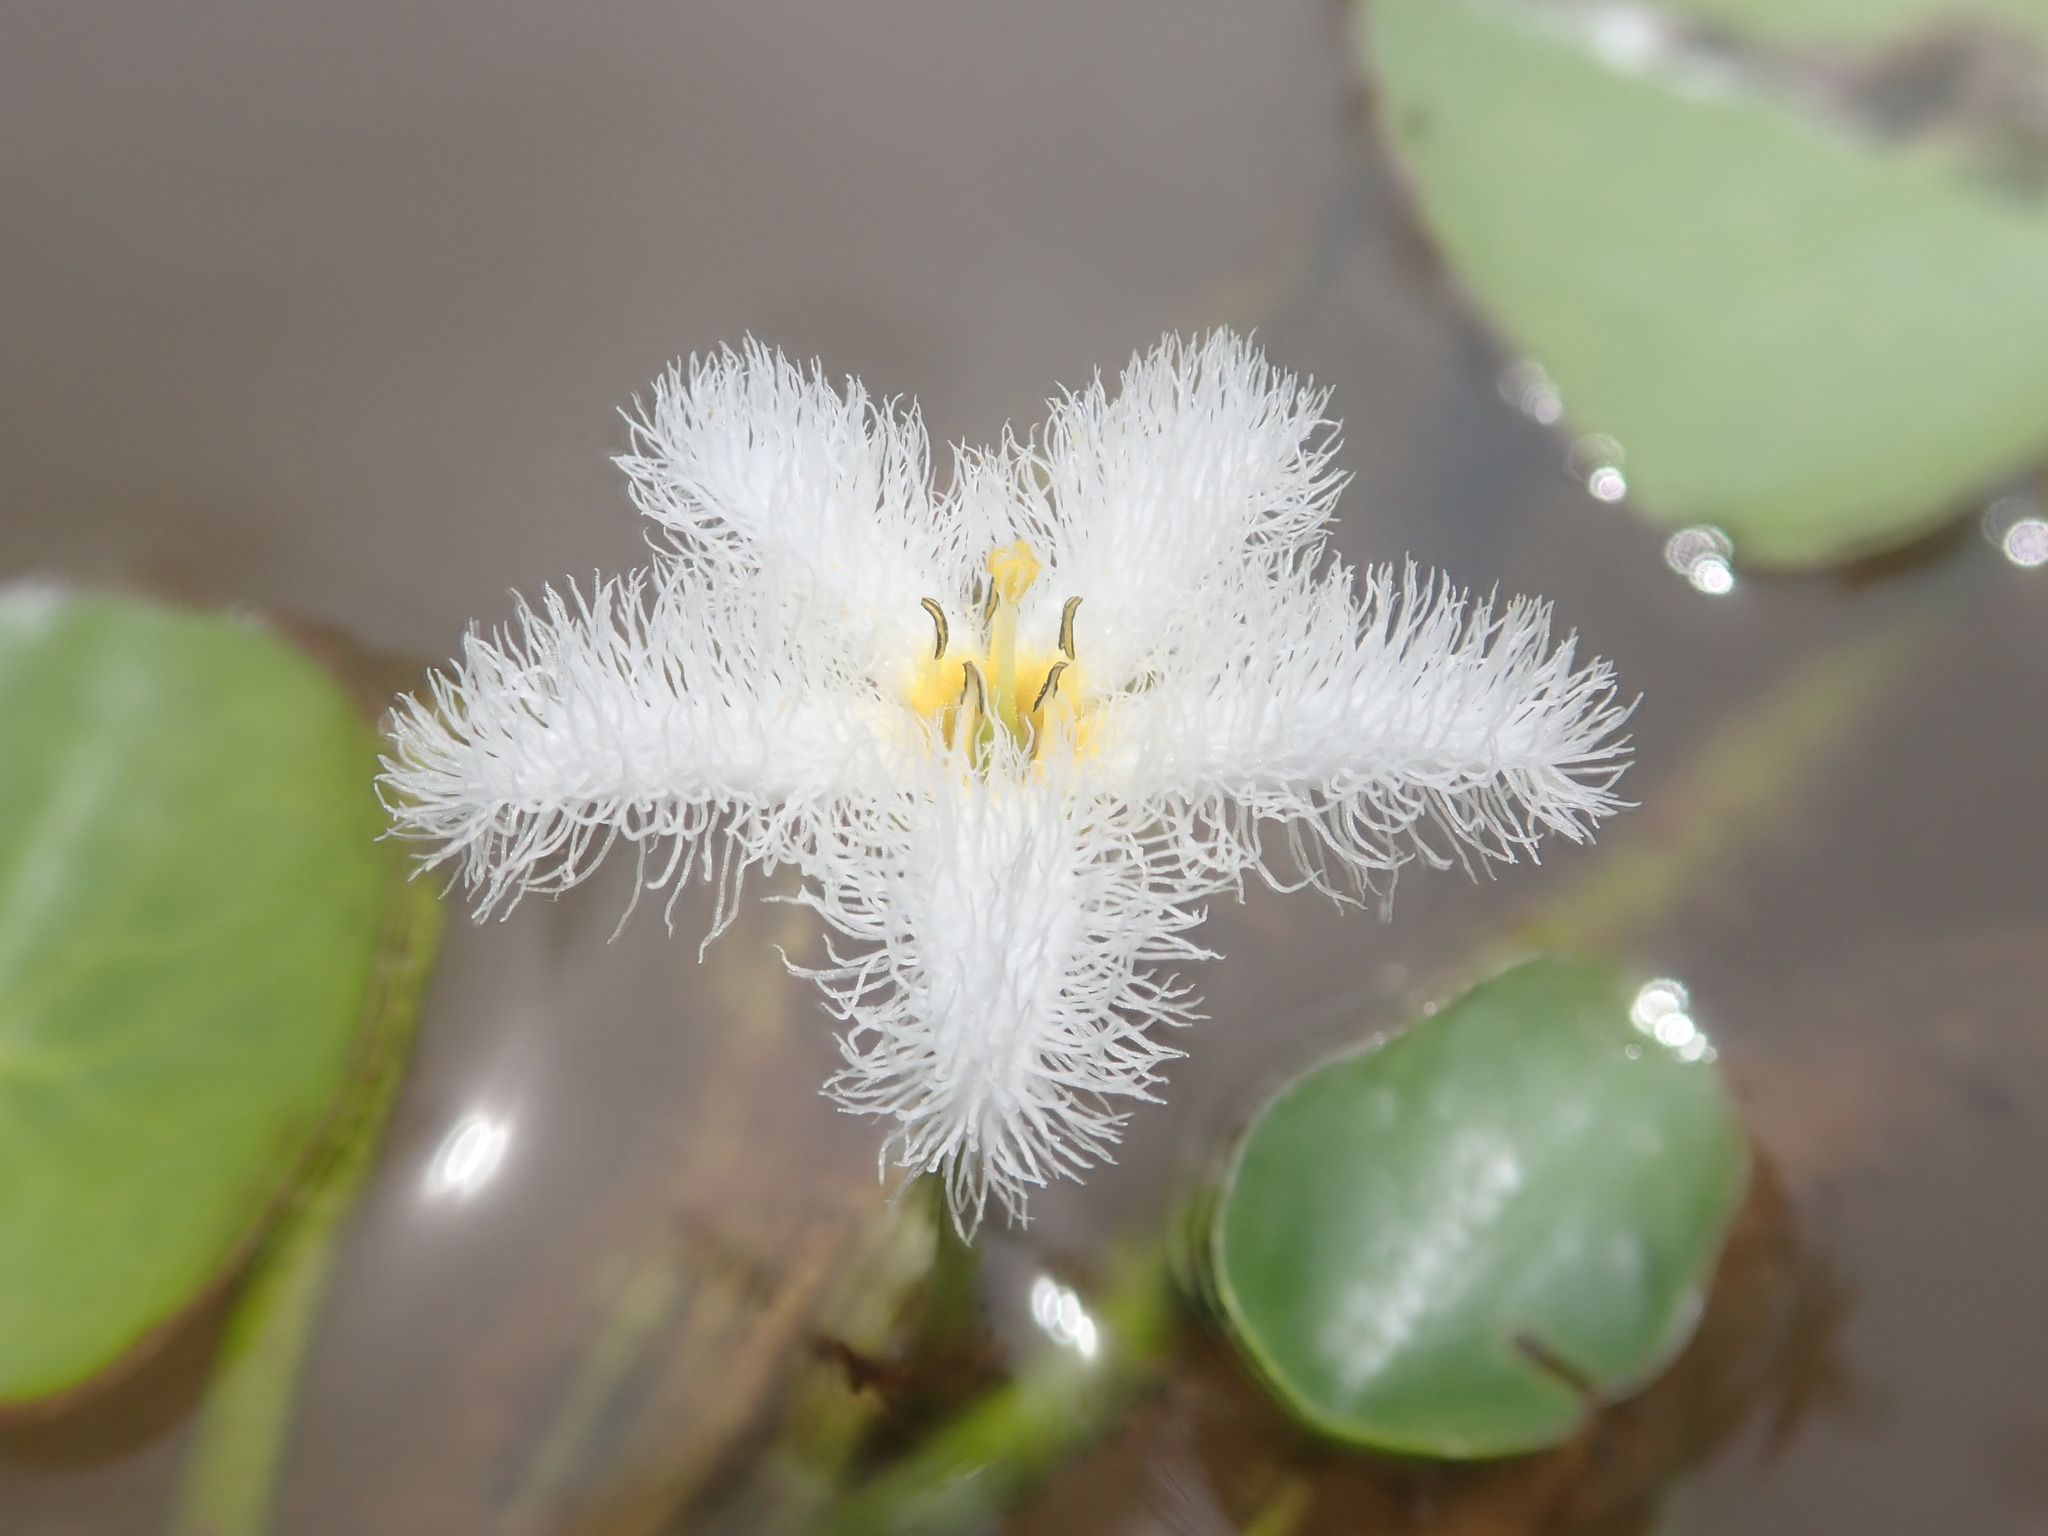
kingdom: Plantae
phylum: Tracheophyta
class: Magnoliopsida
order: Asterales
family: Menyanthaceae
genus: Nymphoides
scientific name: Nymphoides indica
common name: Water-snowflake
